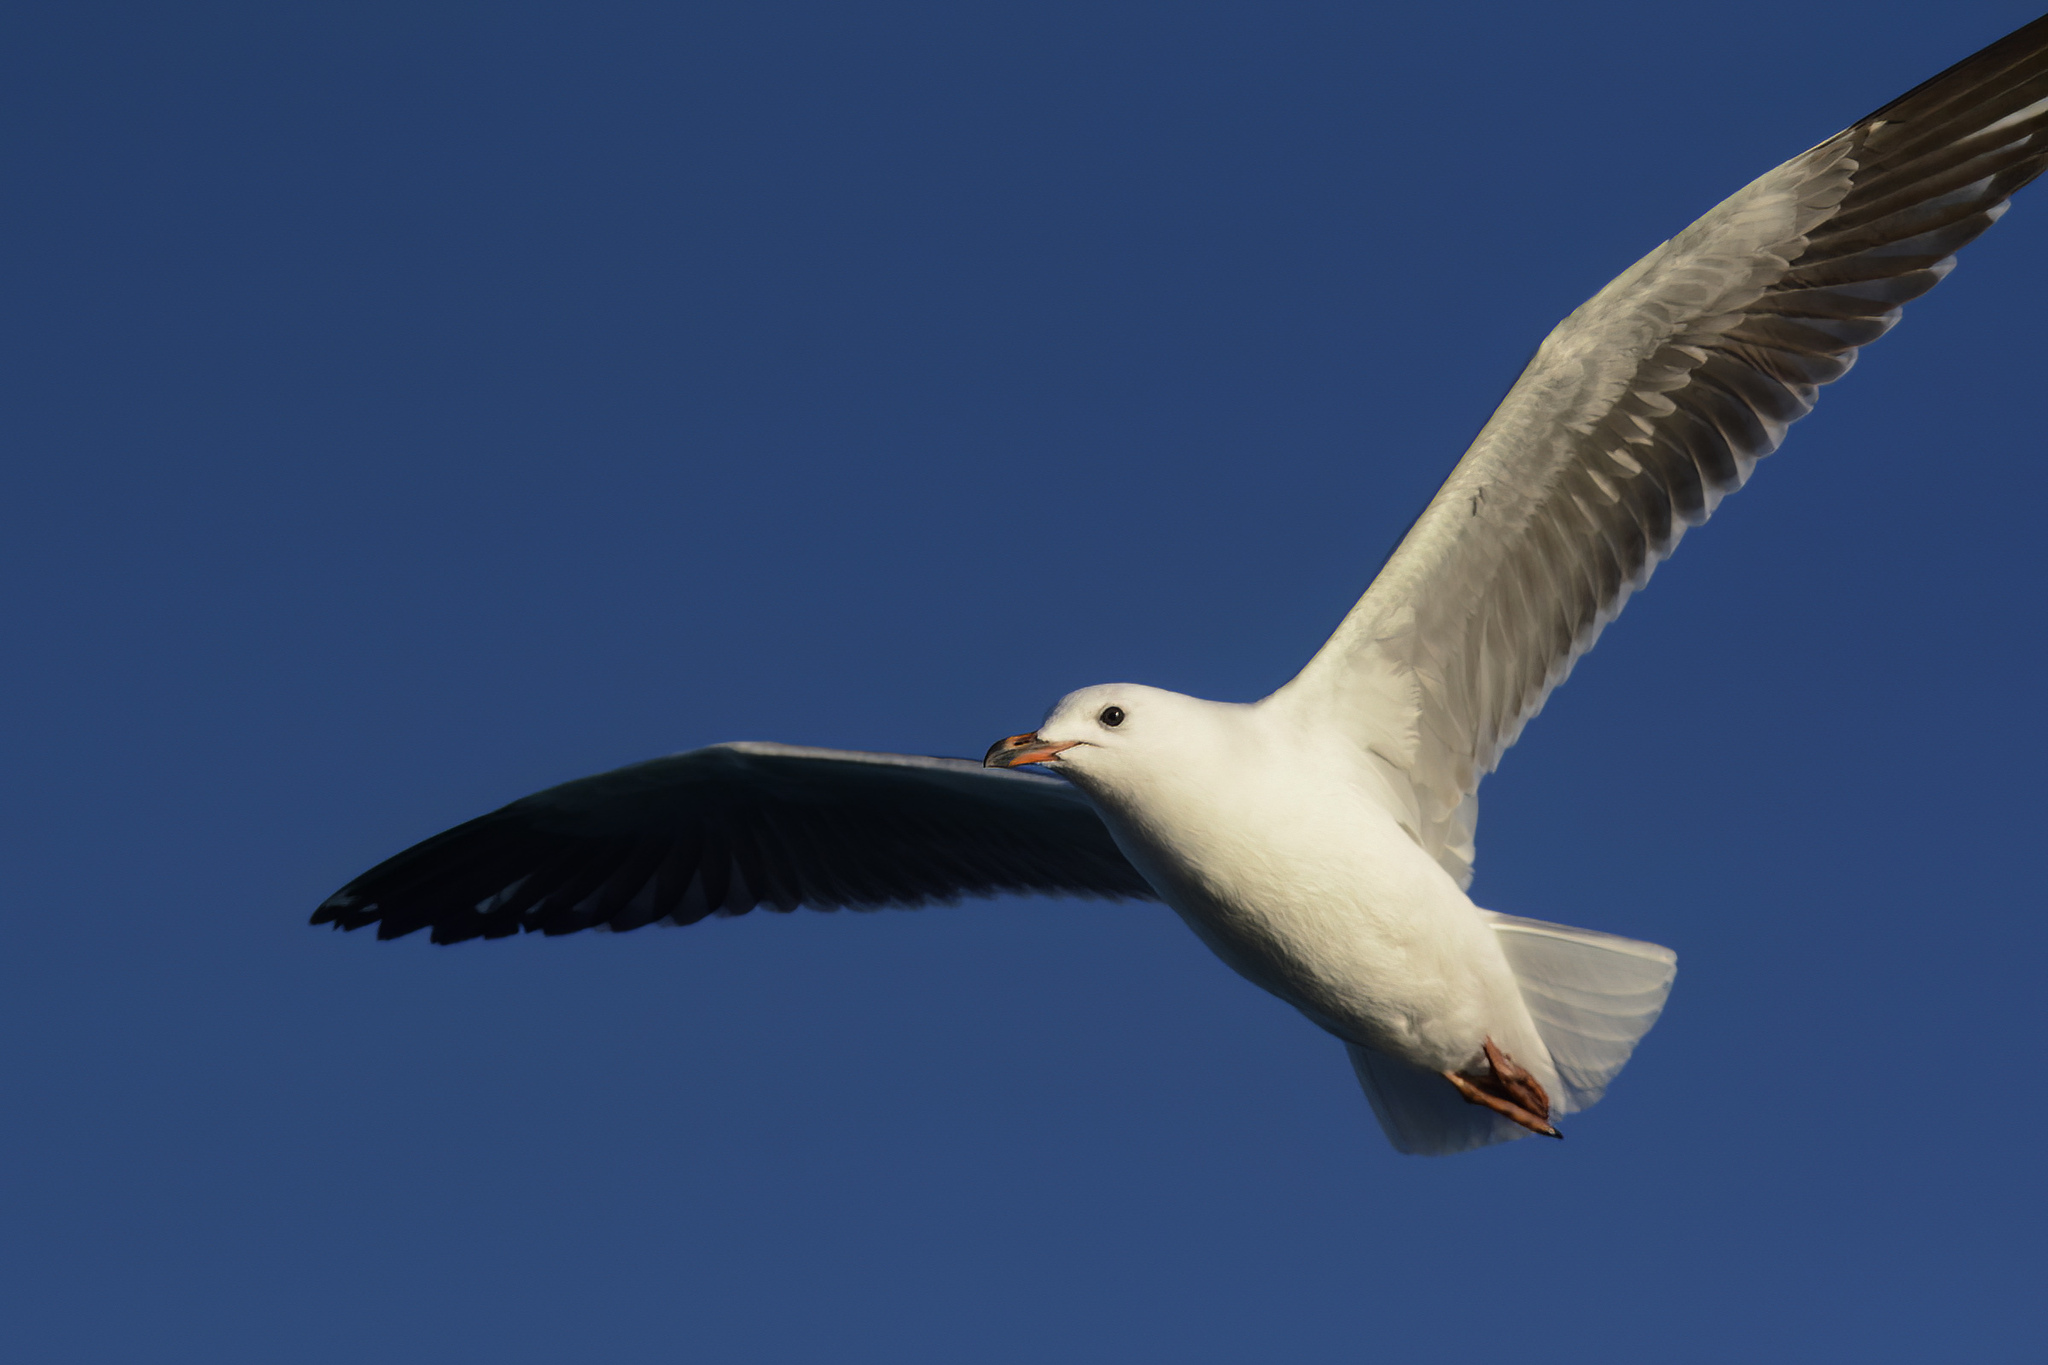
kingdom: Animalia
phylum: Chordata
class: Aves
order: Charadriiformes
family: Laridae
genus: Chroicocephalus
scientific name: Chroicocephalus novaehollandiae
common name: Silver gull
